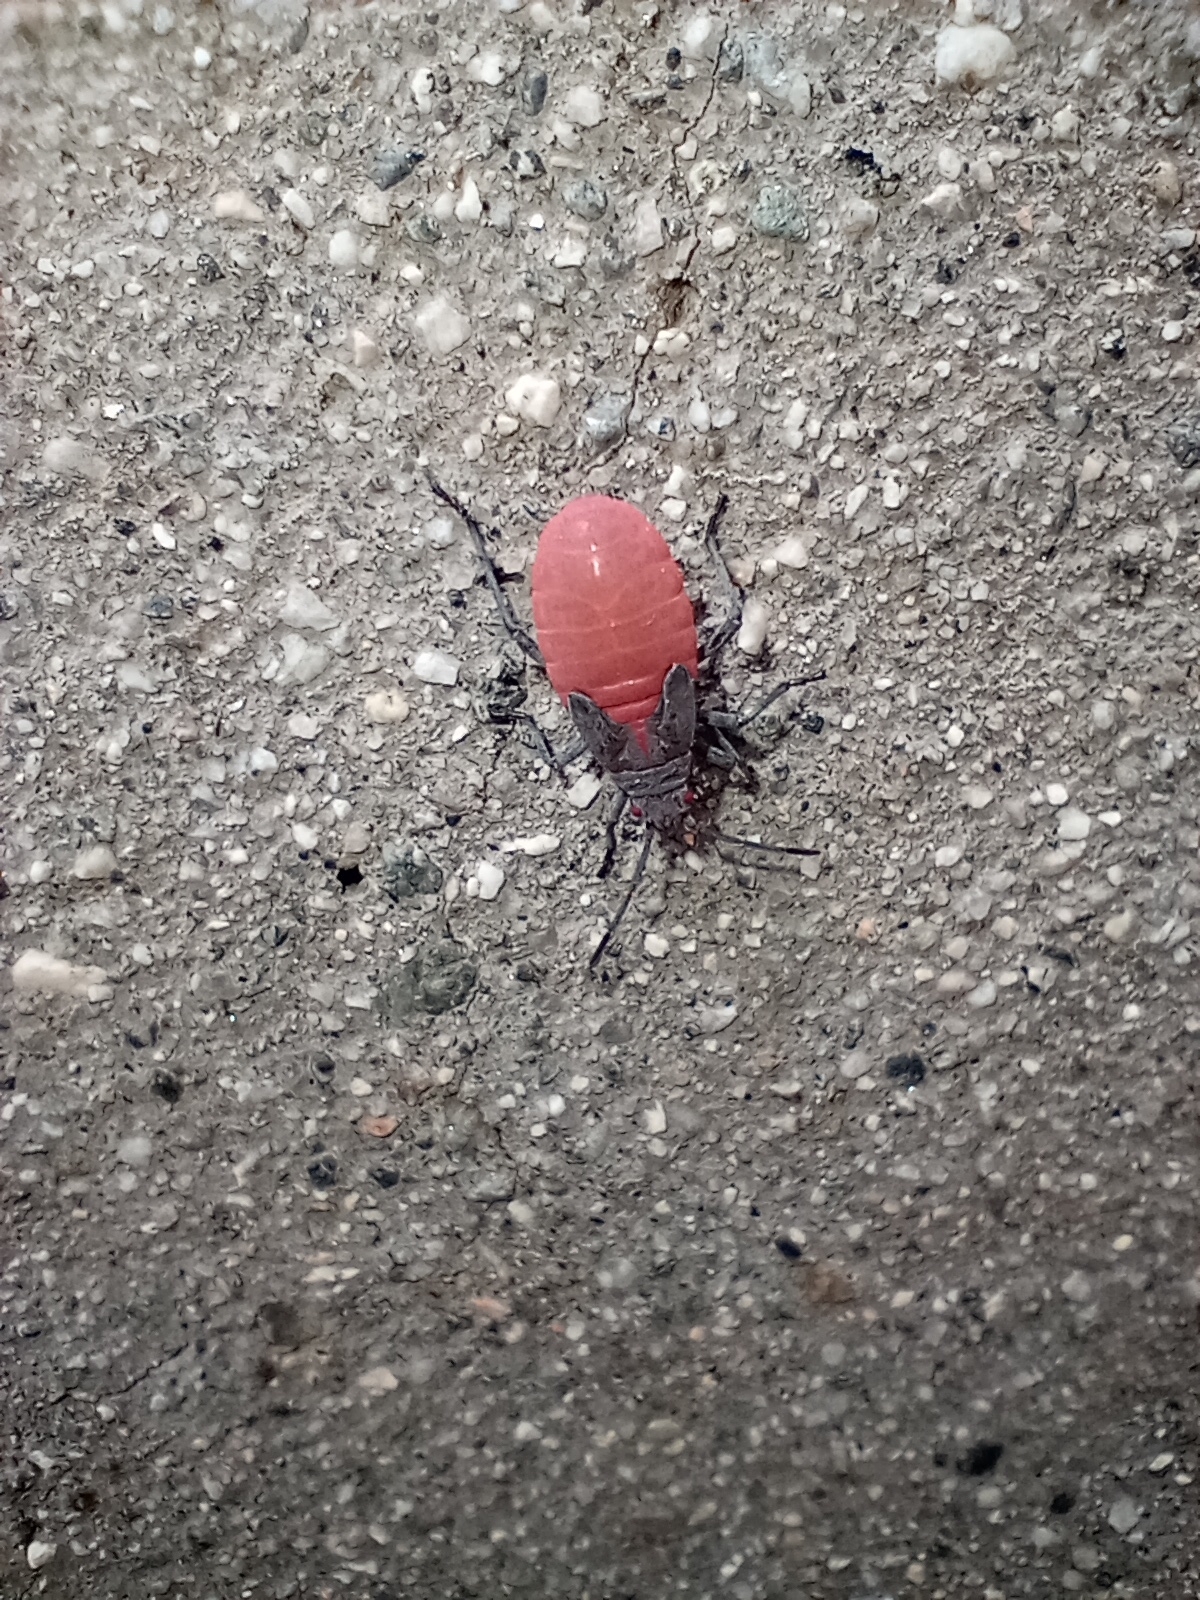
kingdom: Animalia
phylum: Arthropoda
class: Insecta
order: Hemiptera
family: Rhopalidae
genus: Jadera
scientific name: Jadera haematoloma
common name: Red-shouldered bug
